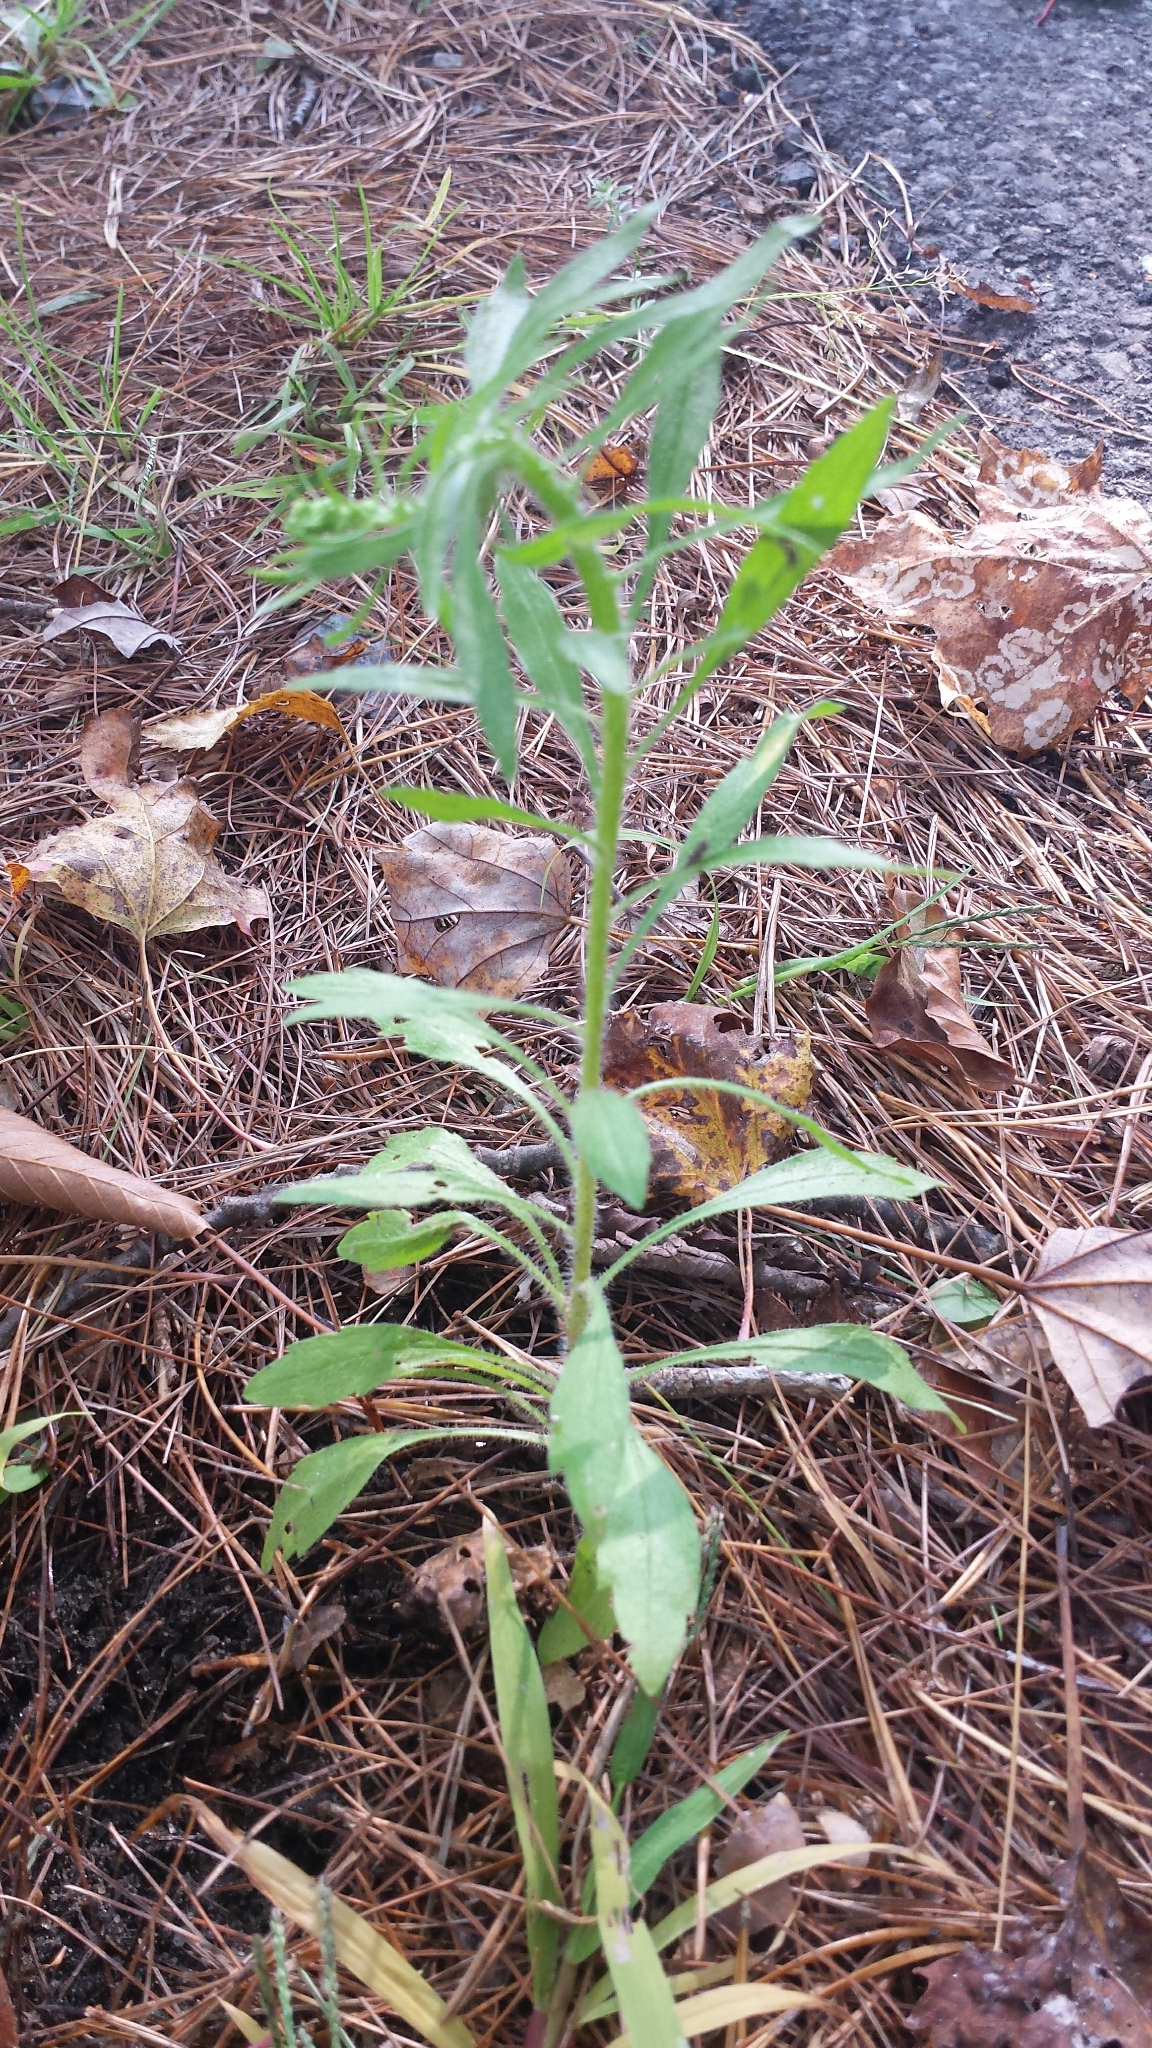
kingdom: Plantae
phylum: Tracheophyta
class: Magnoliopsida
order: Asterales
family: Asteraceae
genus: Erigeron
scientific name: Erigeron canadensis
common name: Canadian fleabane
